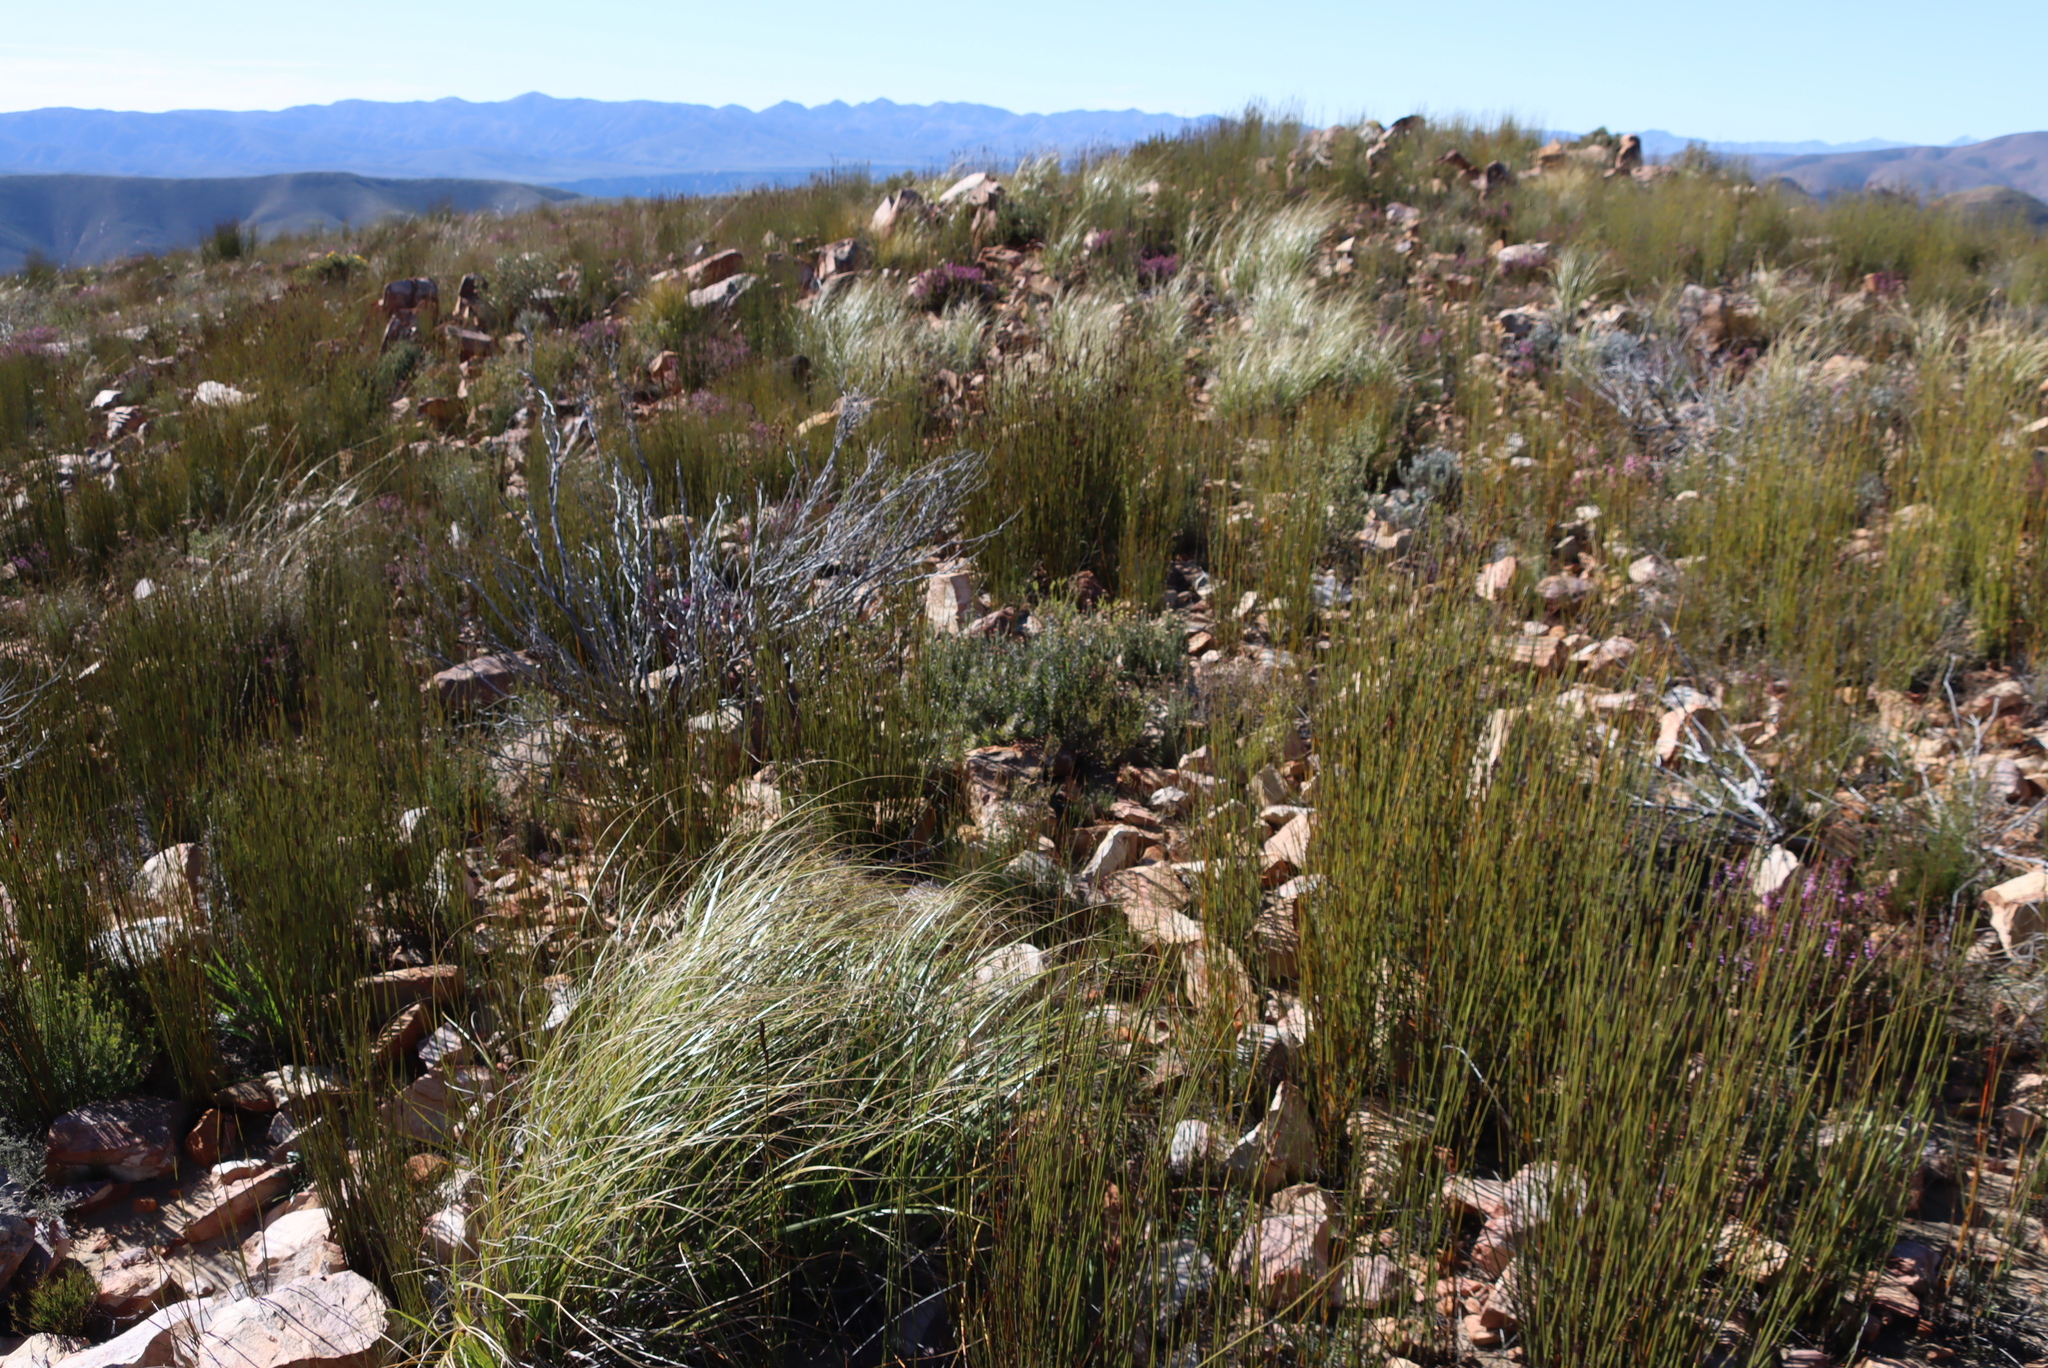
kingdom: Plantae
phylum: Tracheophyta
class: Magnoliopsida
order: Proteales
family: Proteaceae
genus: Leucospermum
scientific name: Leucospermum wittebergense
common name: Swartberg pincushion
